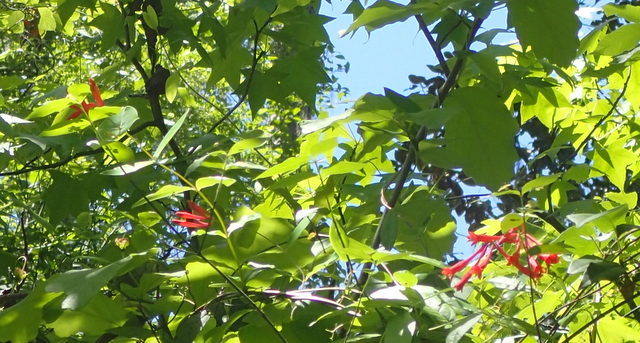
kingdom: Plantae
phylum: Tracheophyta
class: Magnoliopsida
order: Dipsacales
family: Caprifoliaceae
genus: Lonicera
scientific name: Lonicera sempervirens
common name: Coral honeysuckle
